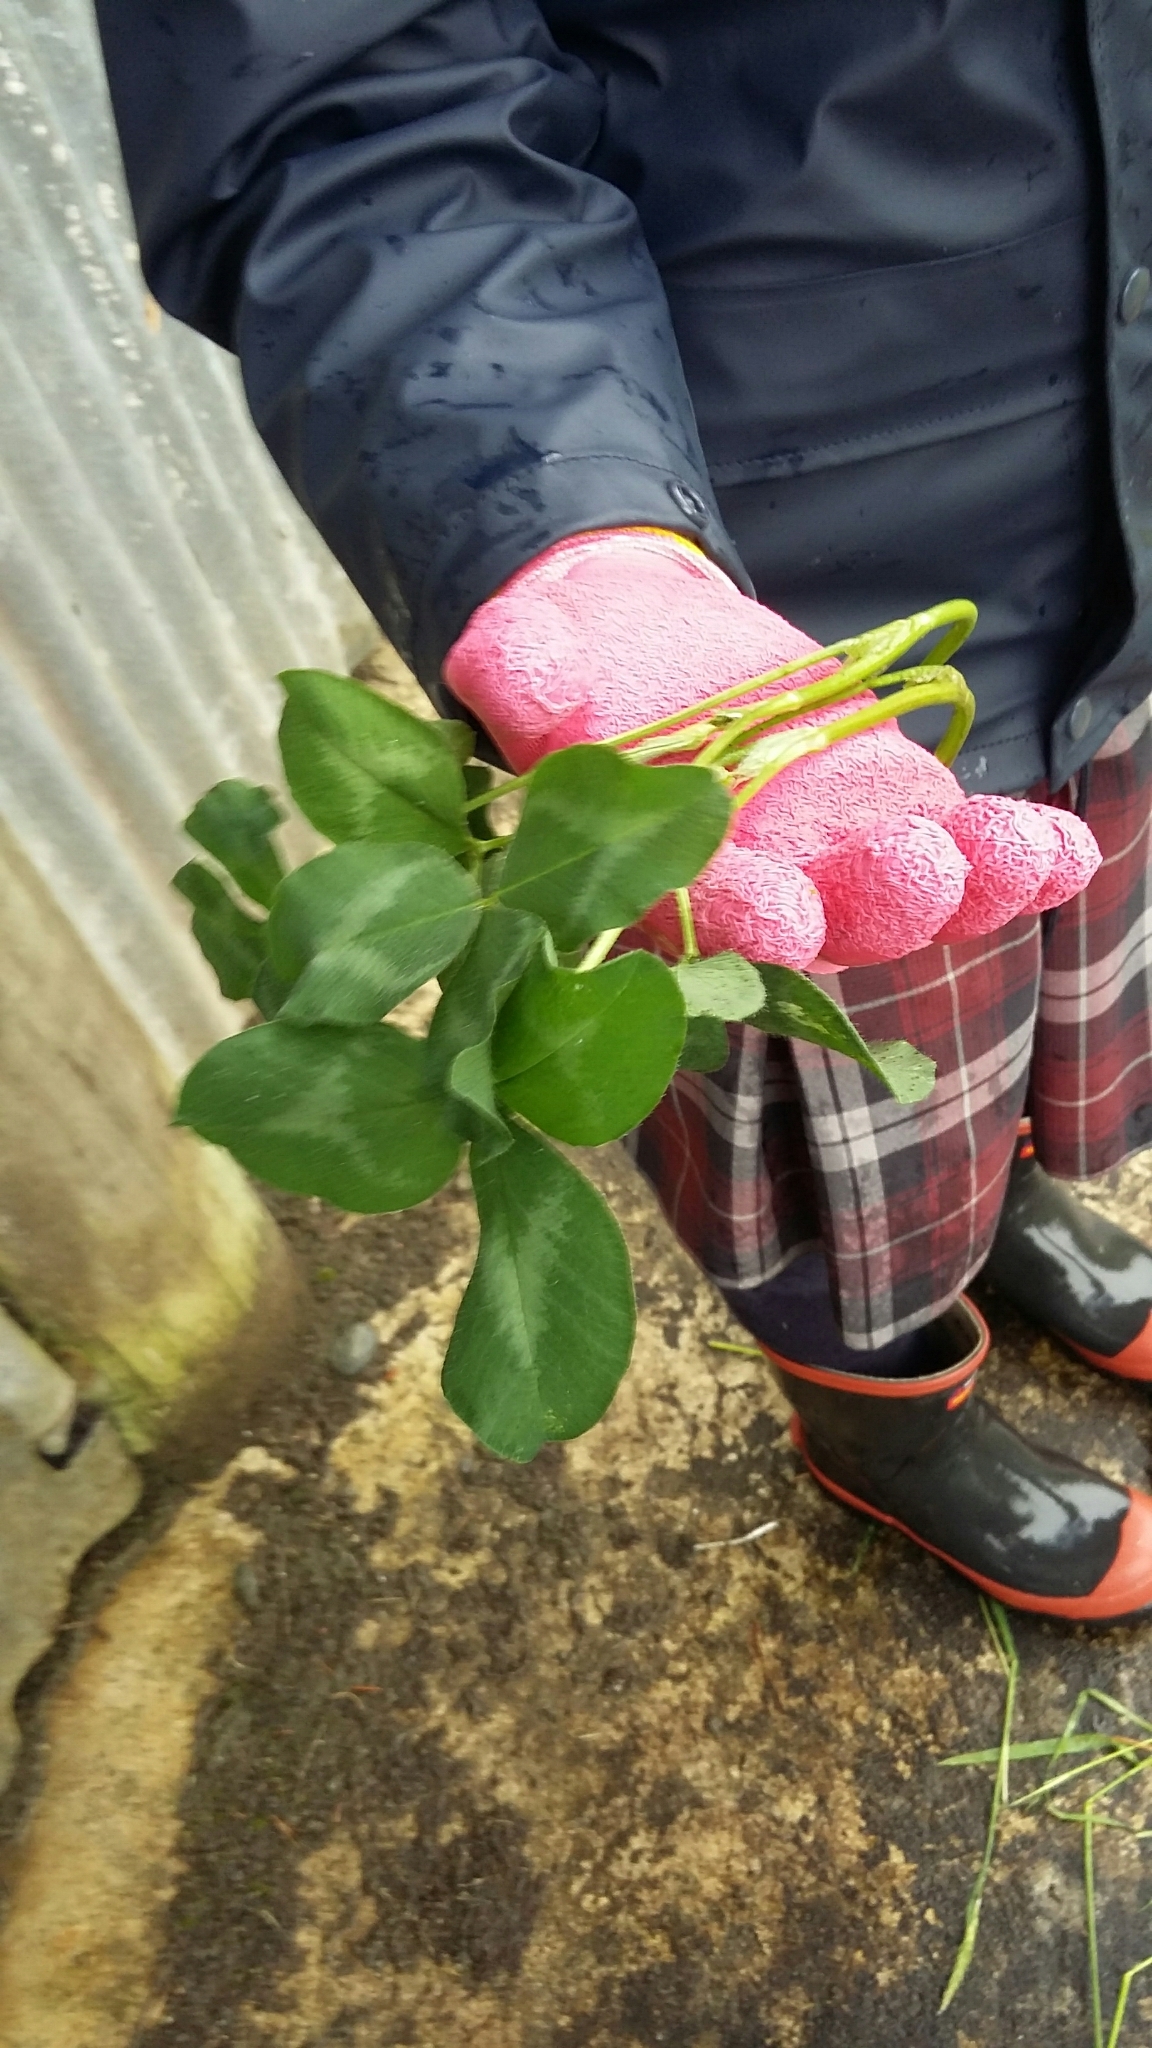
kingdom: Plantae
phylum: Tracheophyta
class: Magnoliopsida
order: Fabales
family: Fabaceae
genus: Trifolium
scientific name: Trifolium repens
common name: White clover
